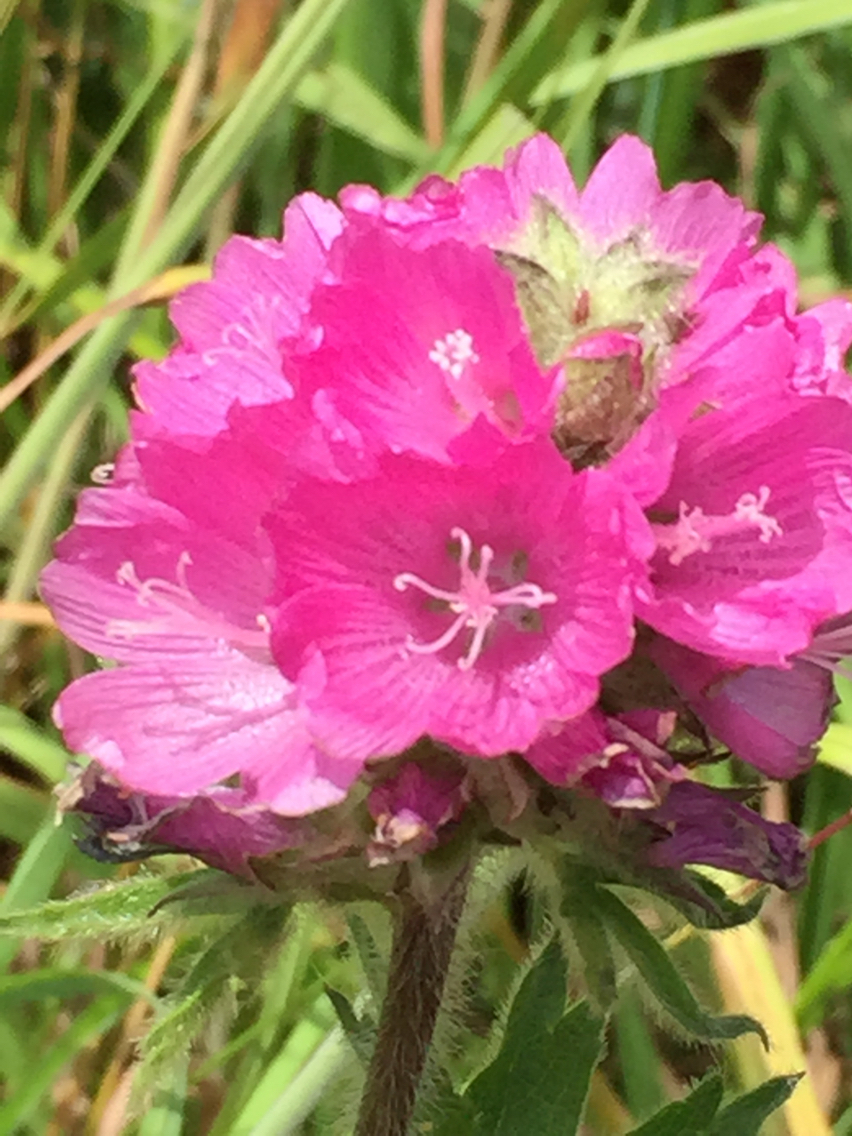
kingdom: Plantae
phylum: Tracheophyta
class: Magnoliopsida
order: Malvales
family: Malvaceae
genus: Sidalcea
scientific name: Sidalcea hirtipes
